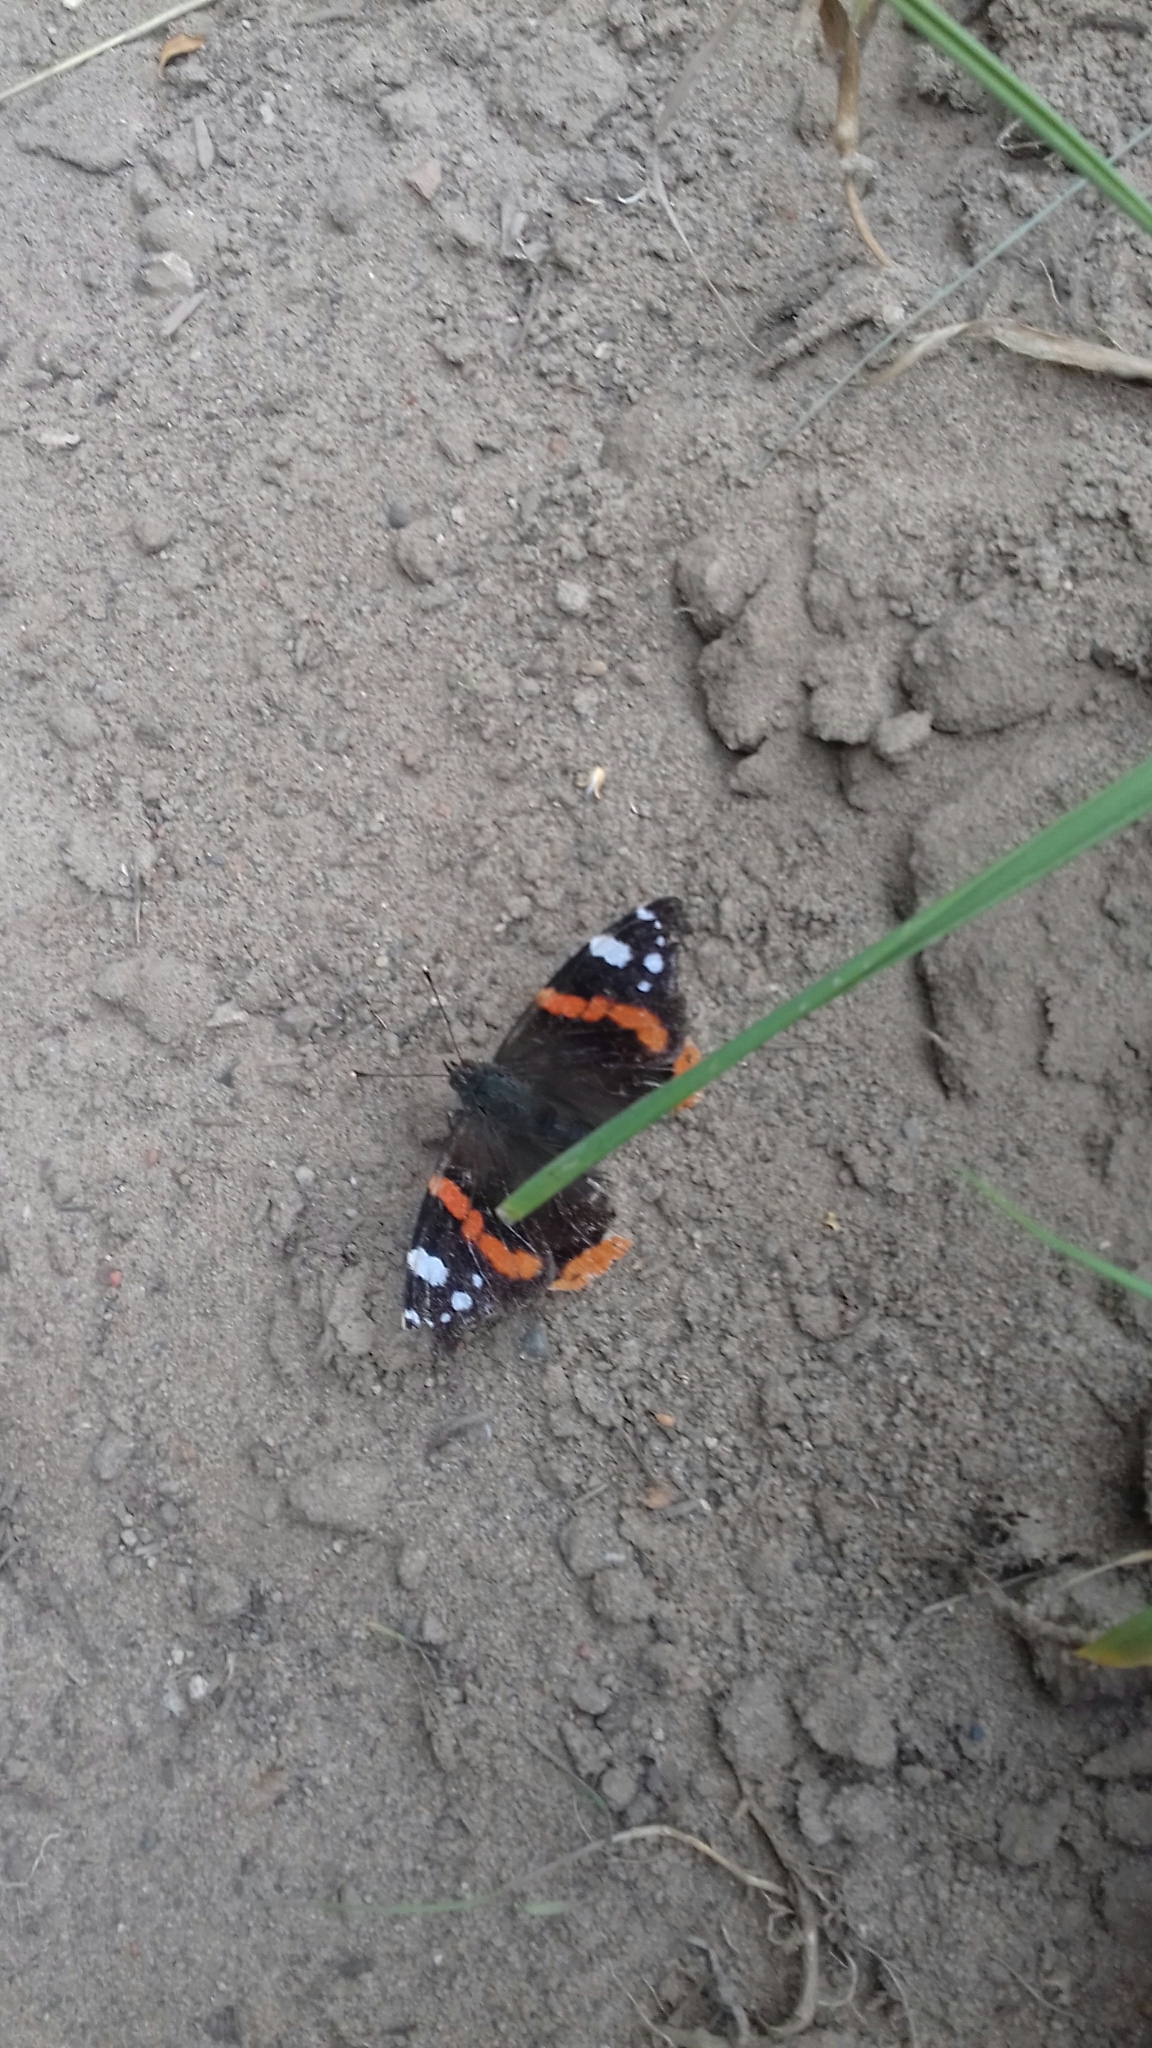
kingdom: Animalia
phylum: Arthropoda
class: Insecta
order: Lepidoptera
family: Nymphalidae
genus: Vanessa
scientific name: Vanessa atalanta
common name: Red admiral
